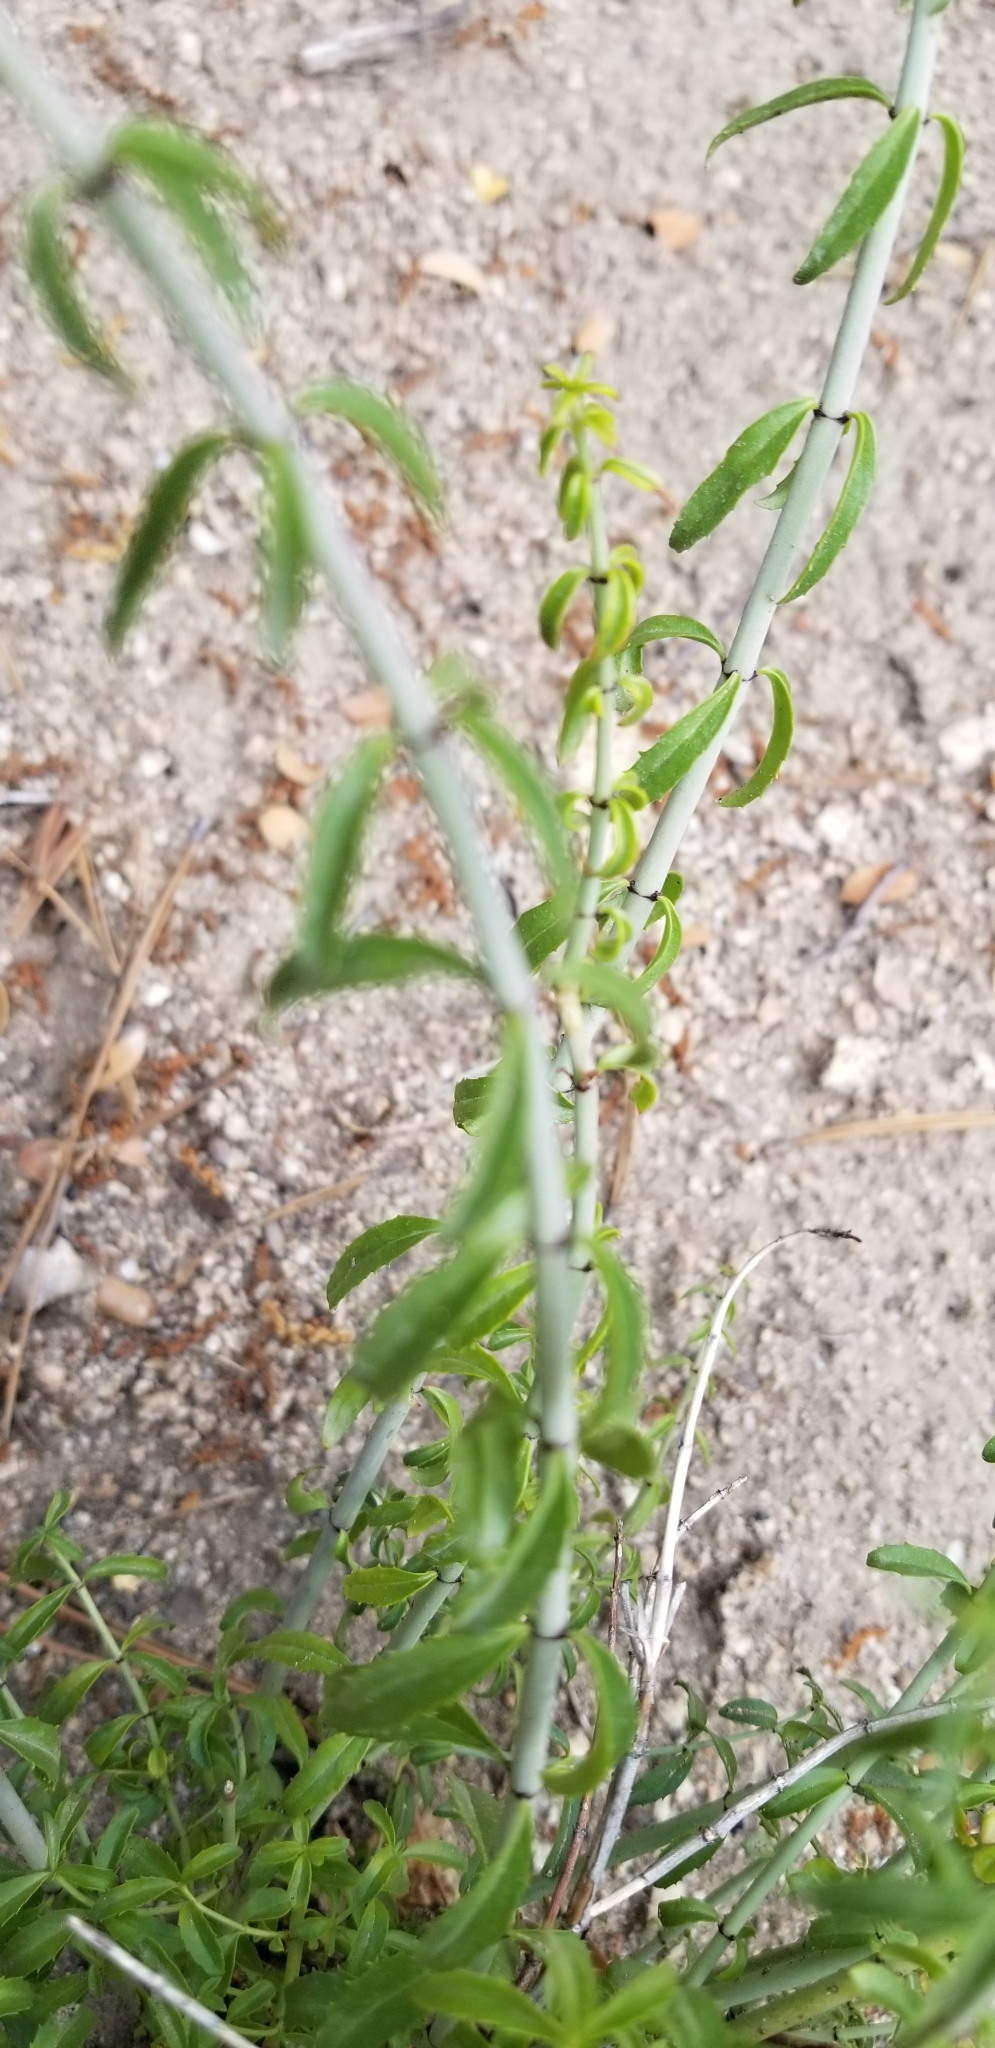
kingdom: Plantae
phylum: Tracheophyta
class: Magnoliopsida
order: Lamiales
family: Plantaginaceae
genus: Keckiella
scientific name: Keckiella ternata
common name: Scarlet keckiella
